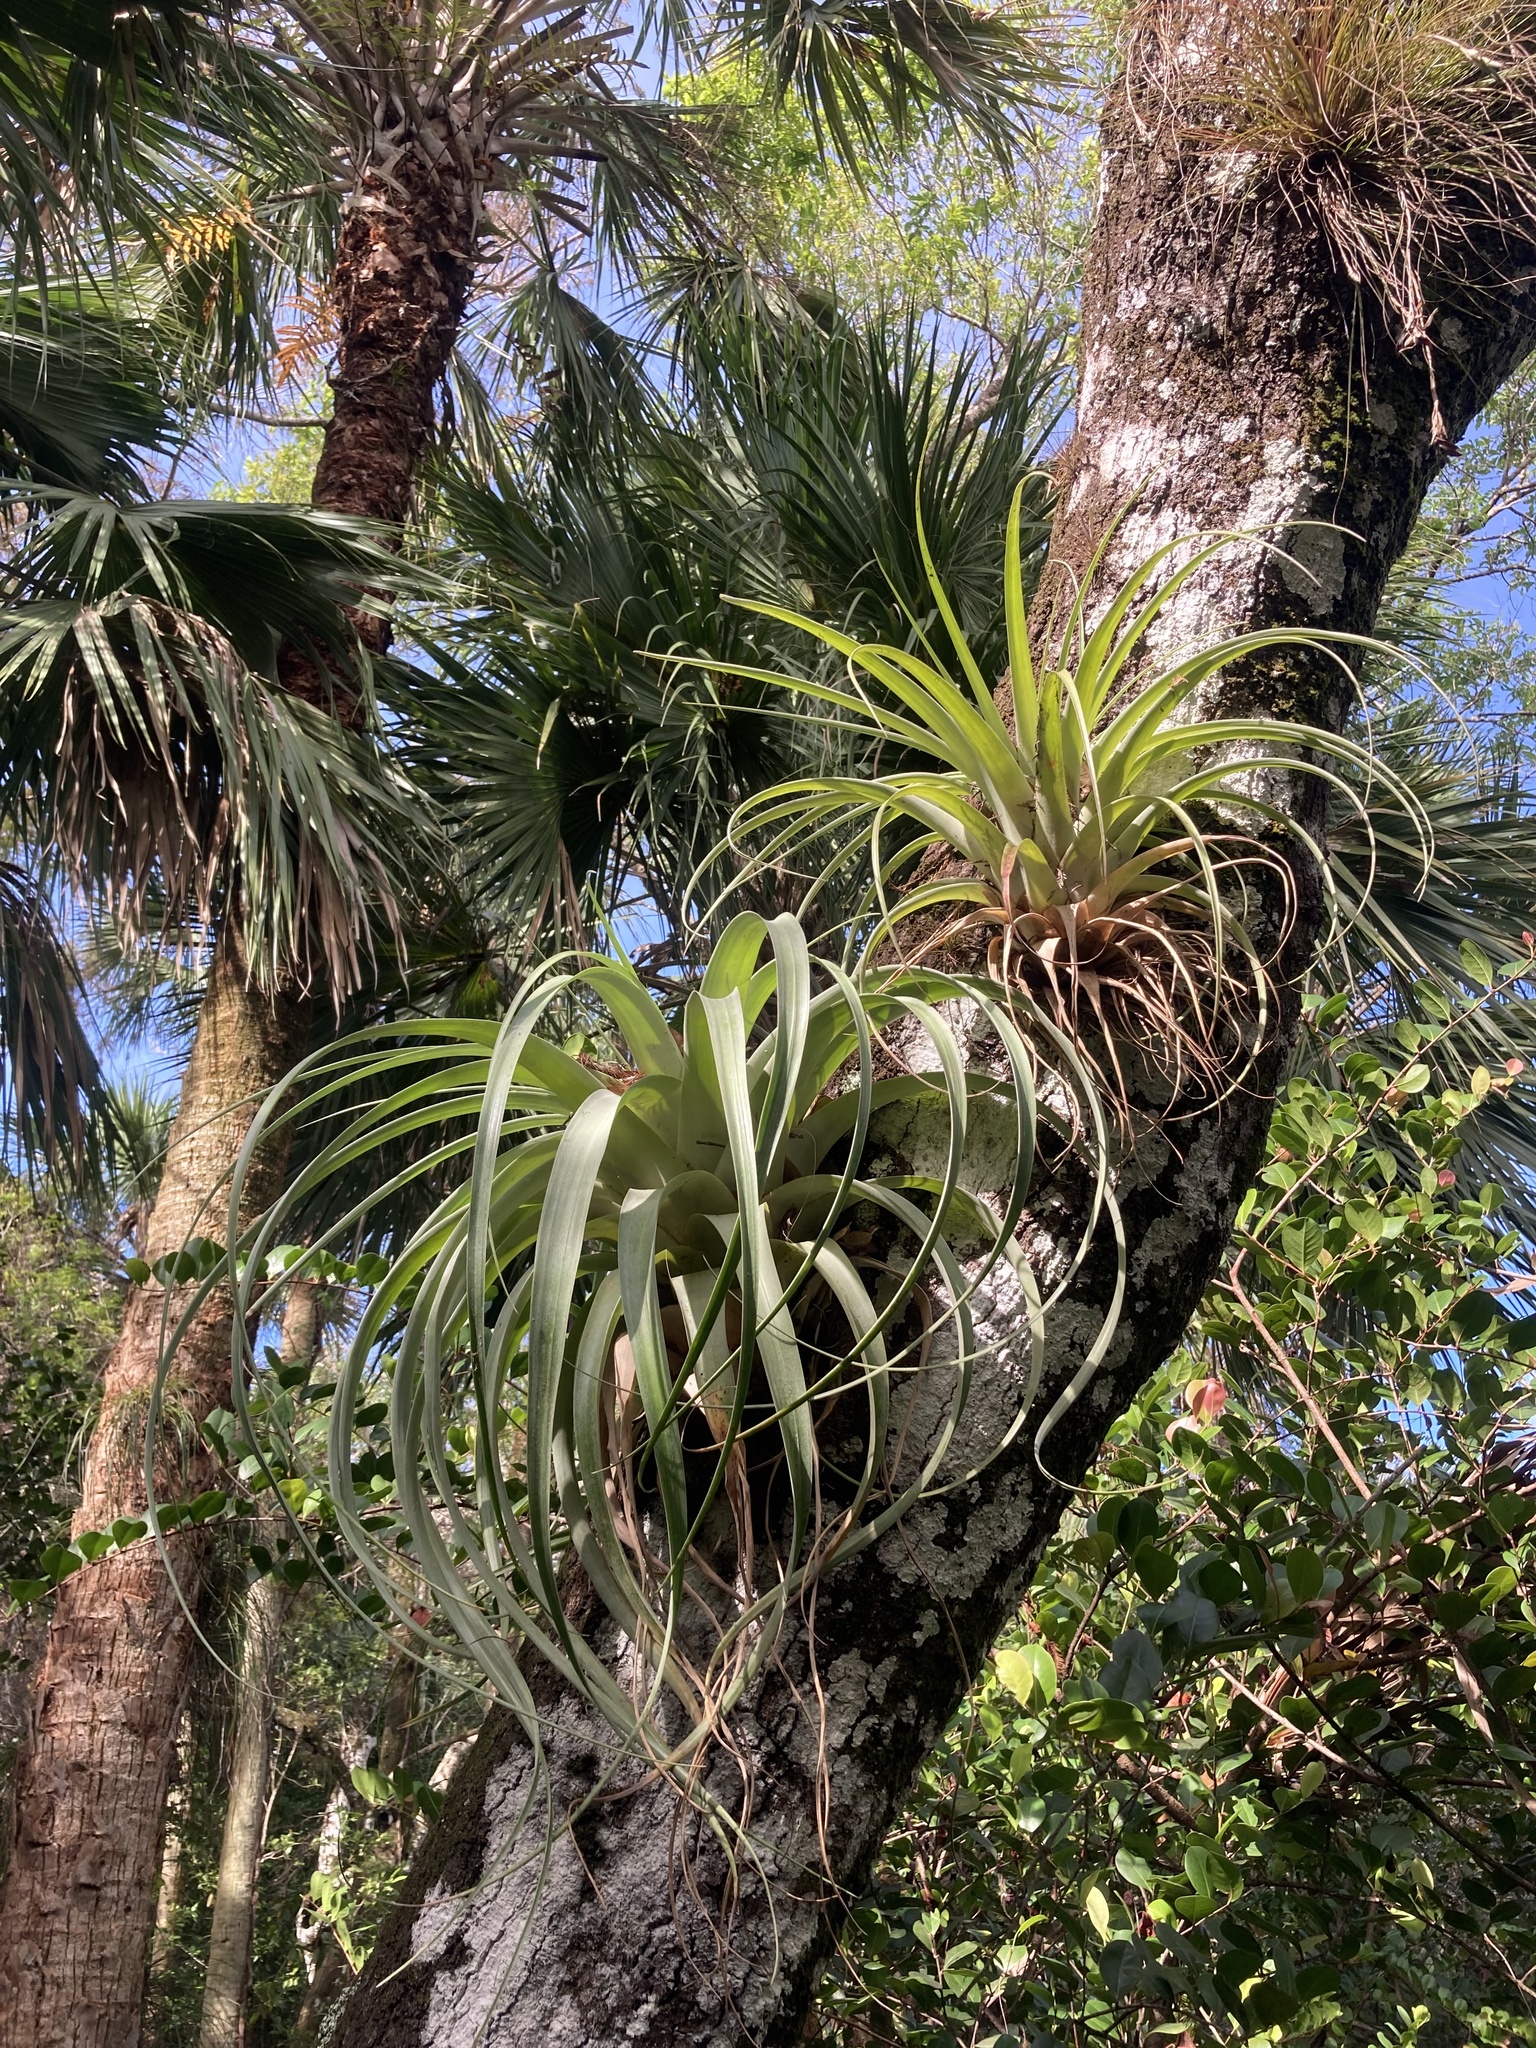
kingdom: Plantae
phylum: Tracheophyta
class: Liliopsida
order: Poales
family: Bromeliaceae
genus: Tillandsia
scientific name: Tillandsia utriculata
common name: Wild pine
